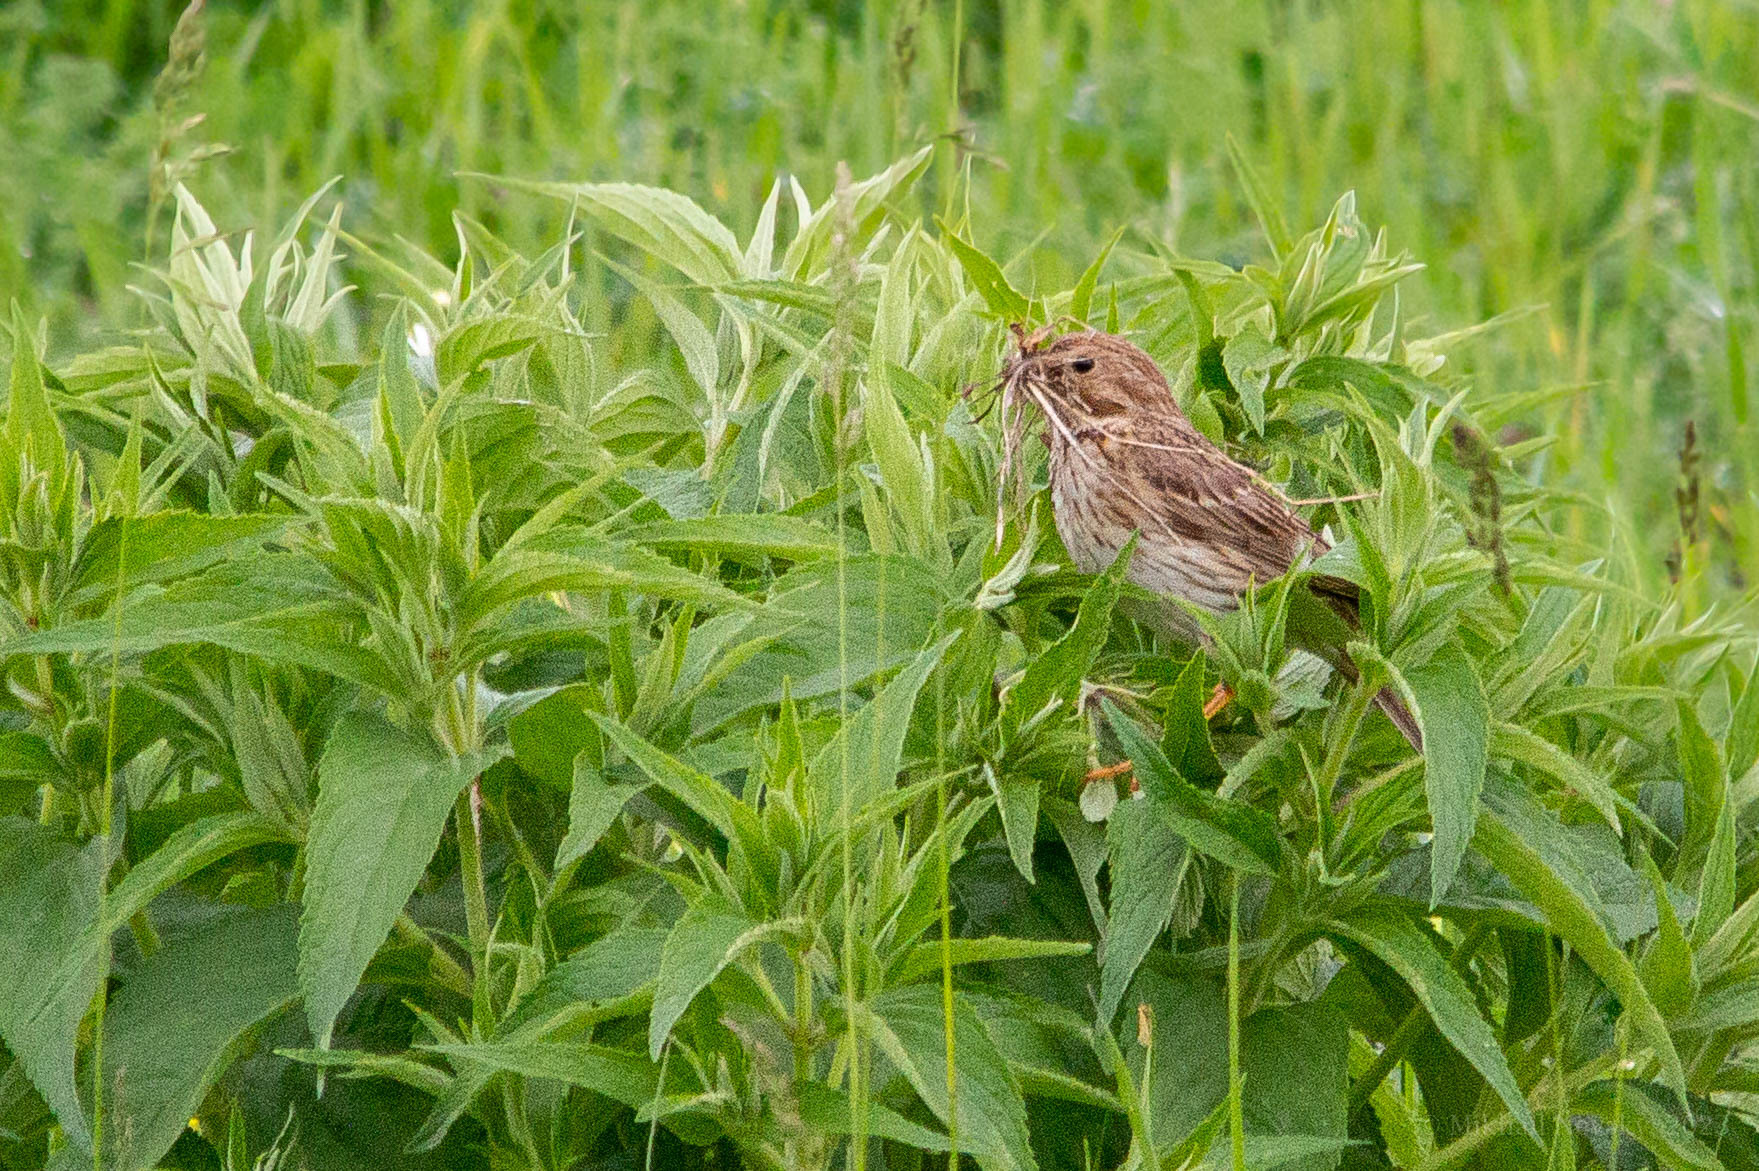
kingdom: Animalia
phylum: Chordata
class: Aves
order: Passeriformes
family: Emberizidae
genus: Emberiza
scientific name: Emberiza calandra
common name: Corn bunting
